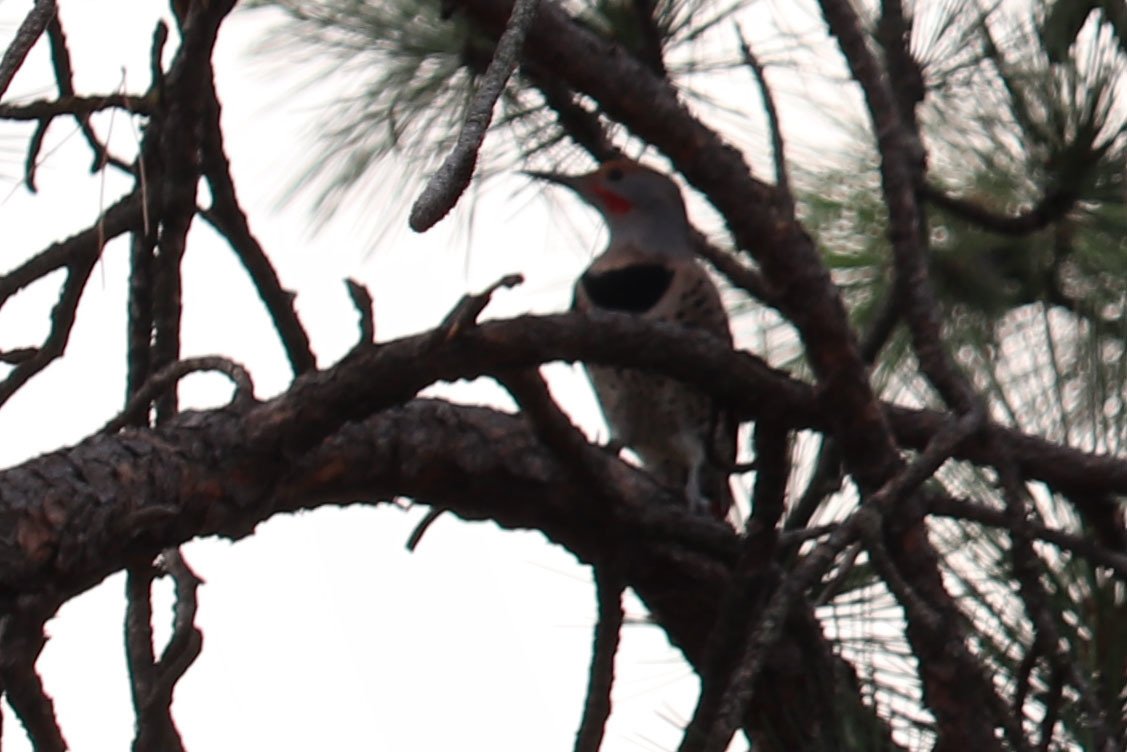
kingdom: Animalia
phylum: Chordata
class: Aves
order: Piciformes
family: Picidae
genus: Colaptes
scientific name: Colaptes auratus
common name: Northern flicker
